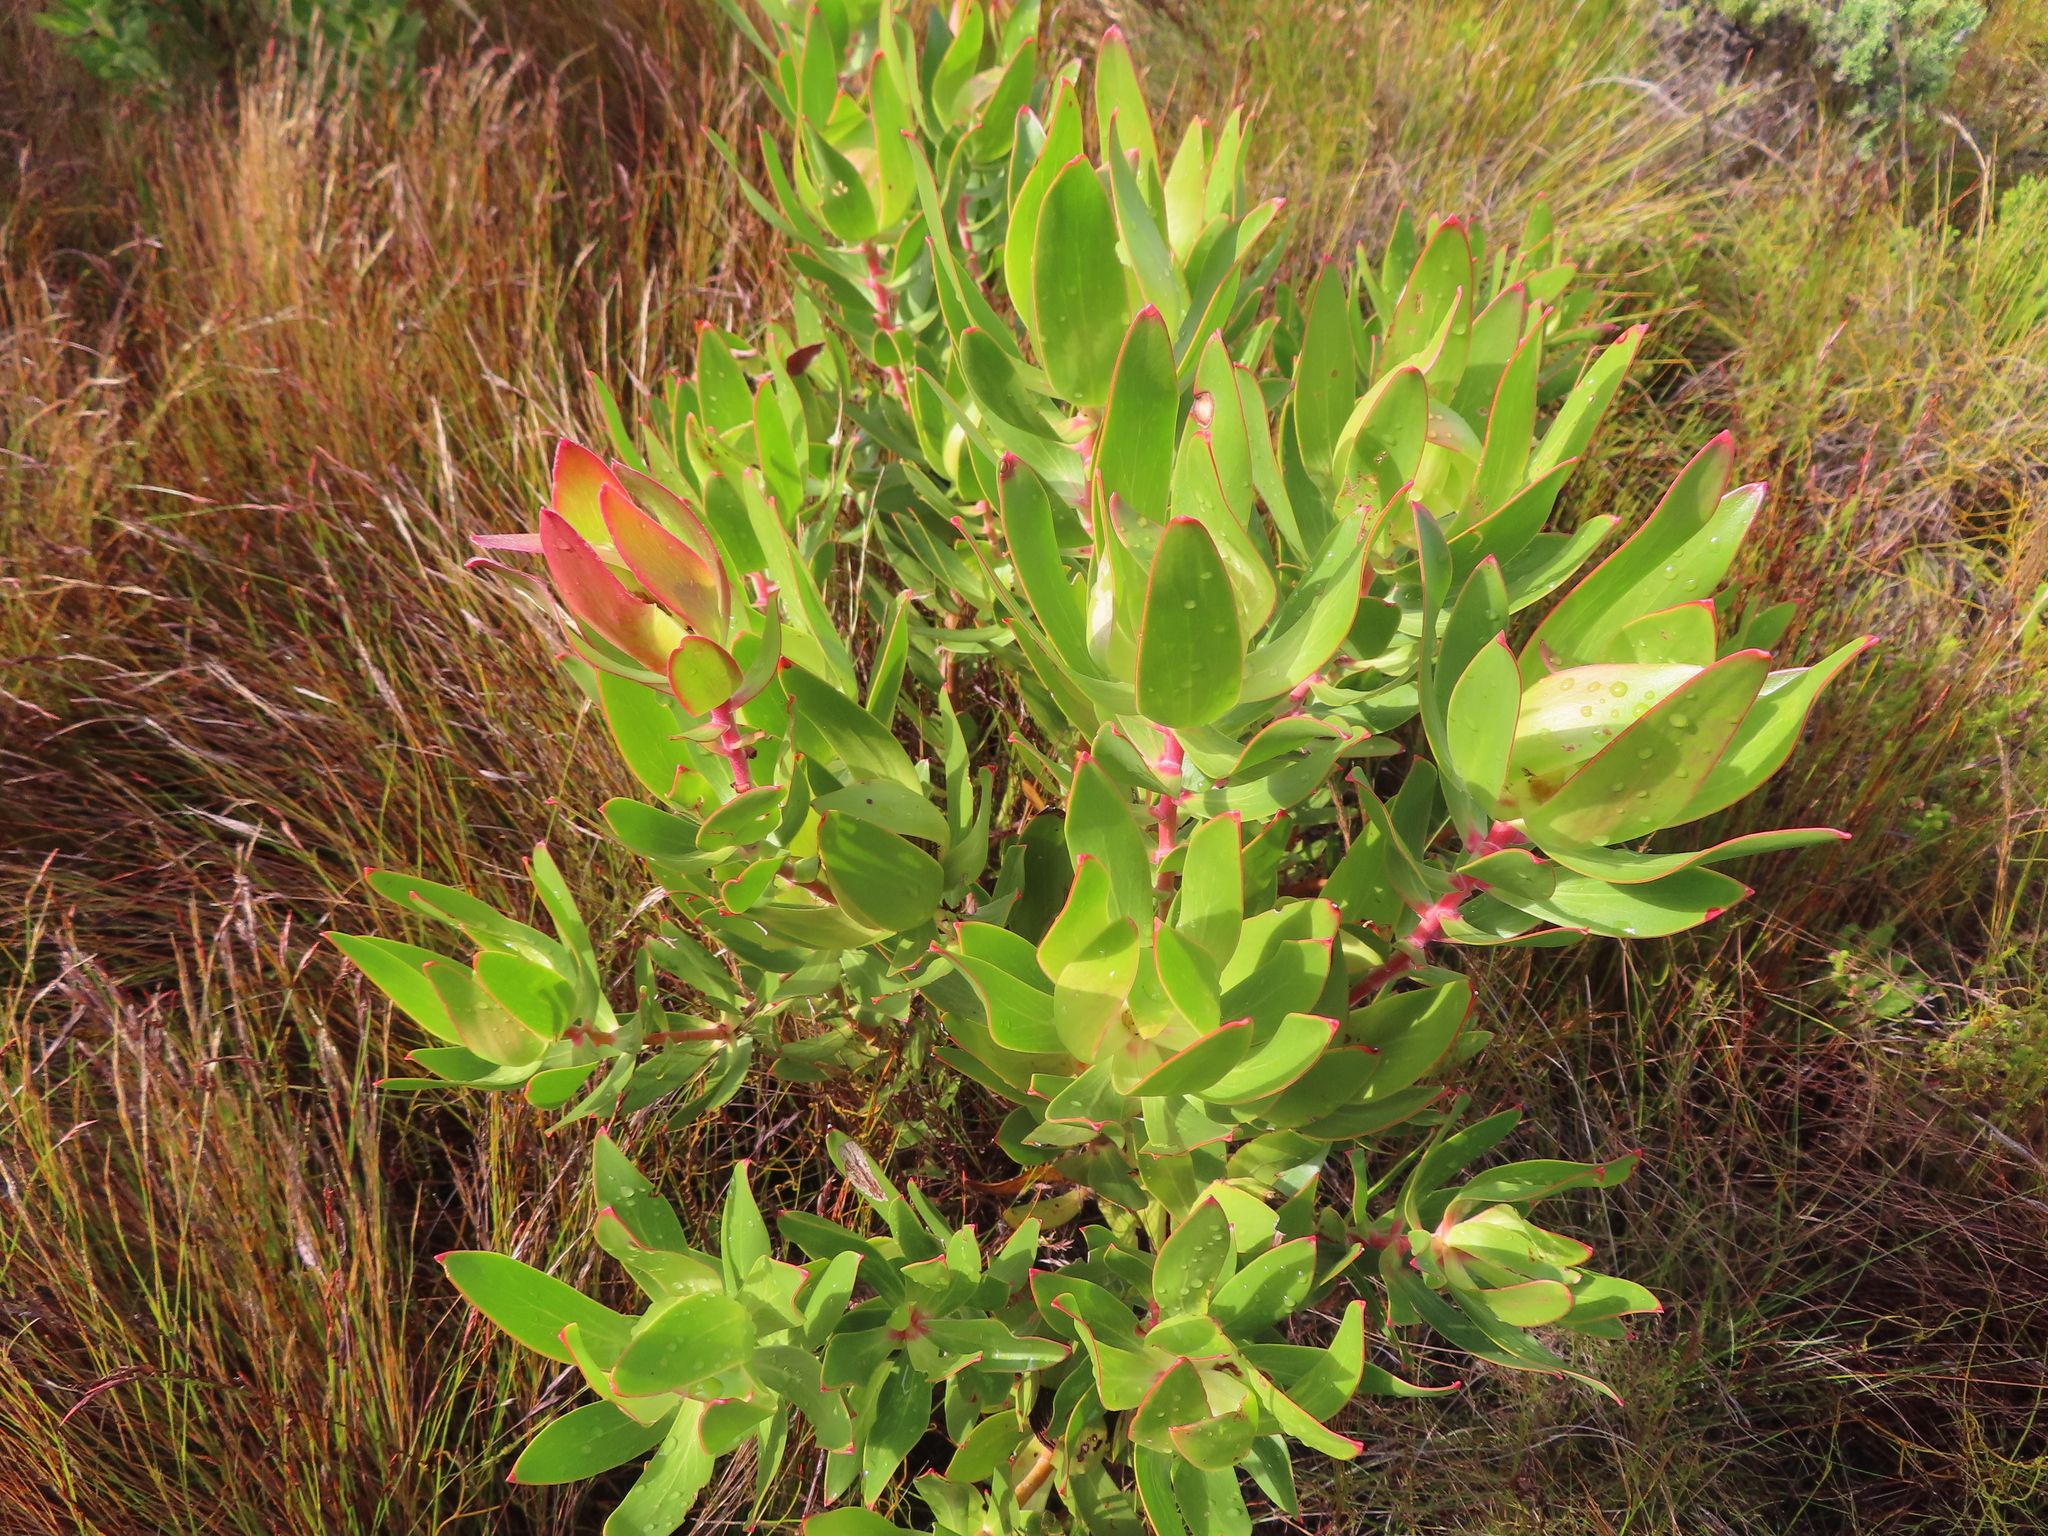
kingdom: Plantae
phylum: Tracheophyta
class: Magnoliopsida
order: Proteales
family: Proteaceae
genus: Leucadendron
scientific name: Leucadendron laureolum
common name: Golden sunshinebush
